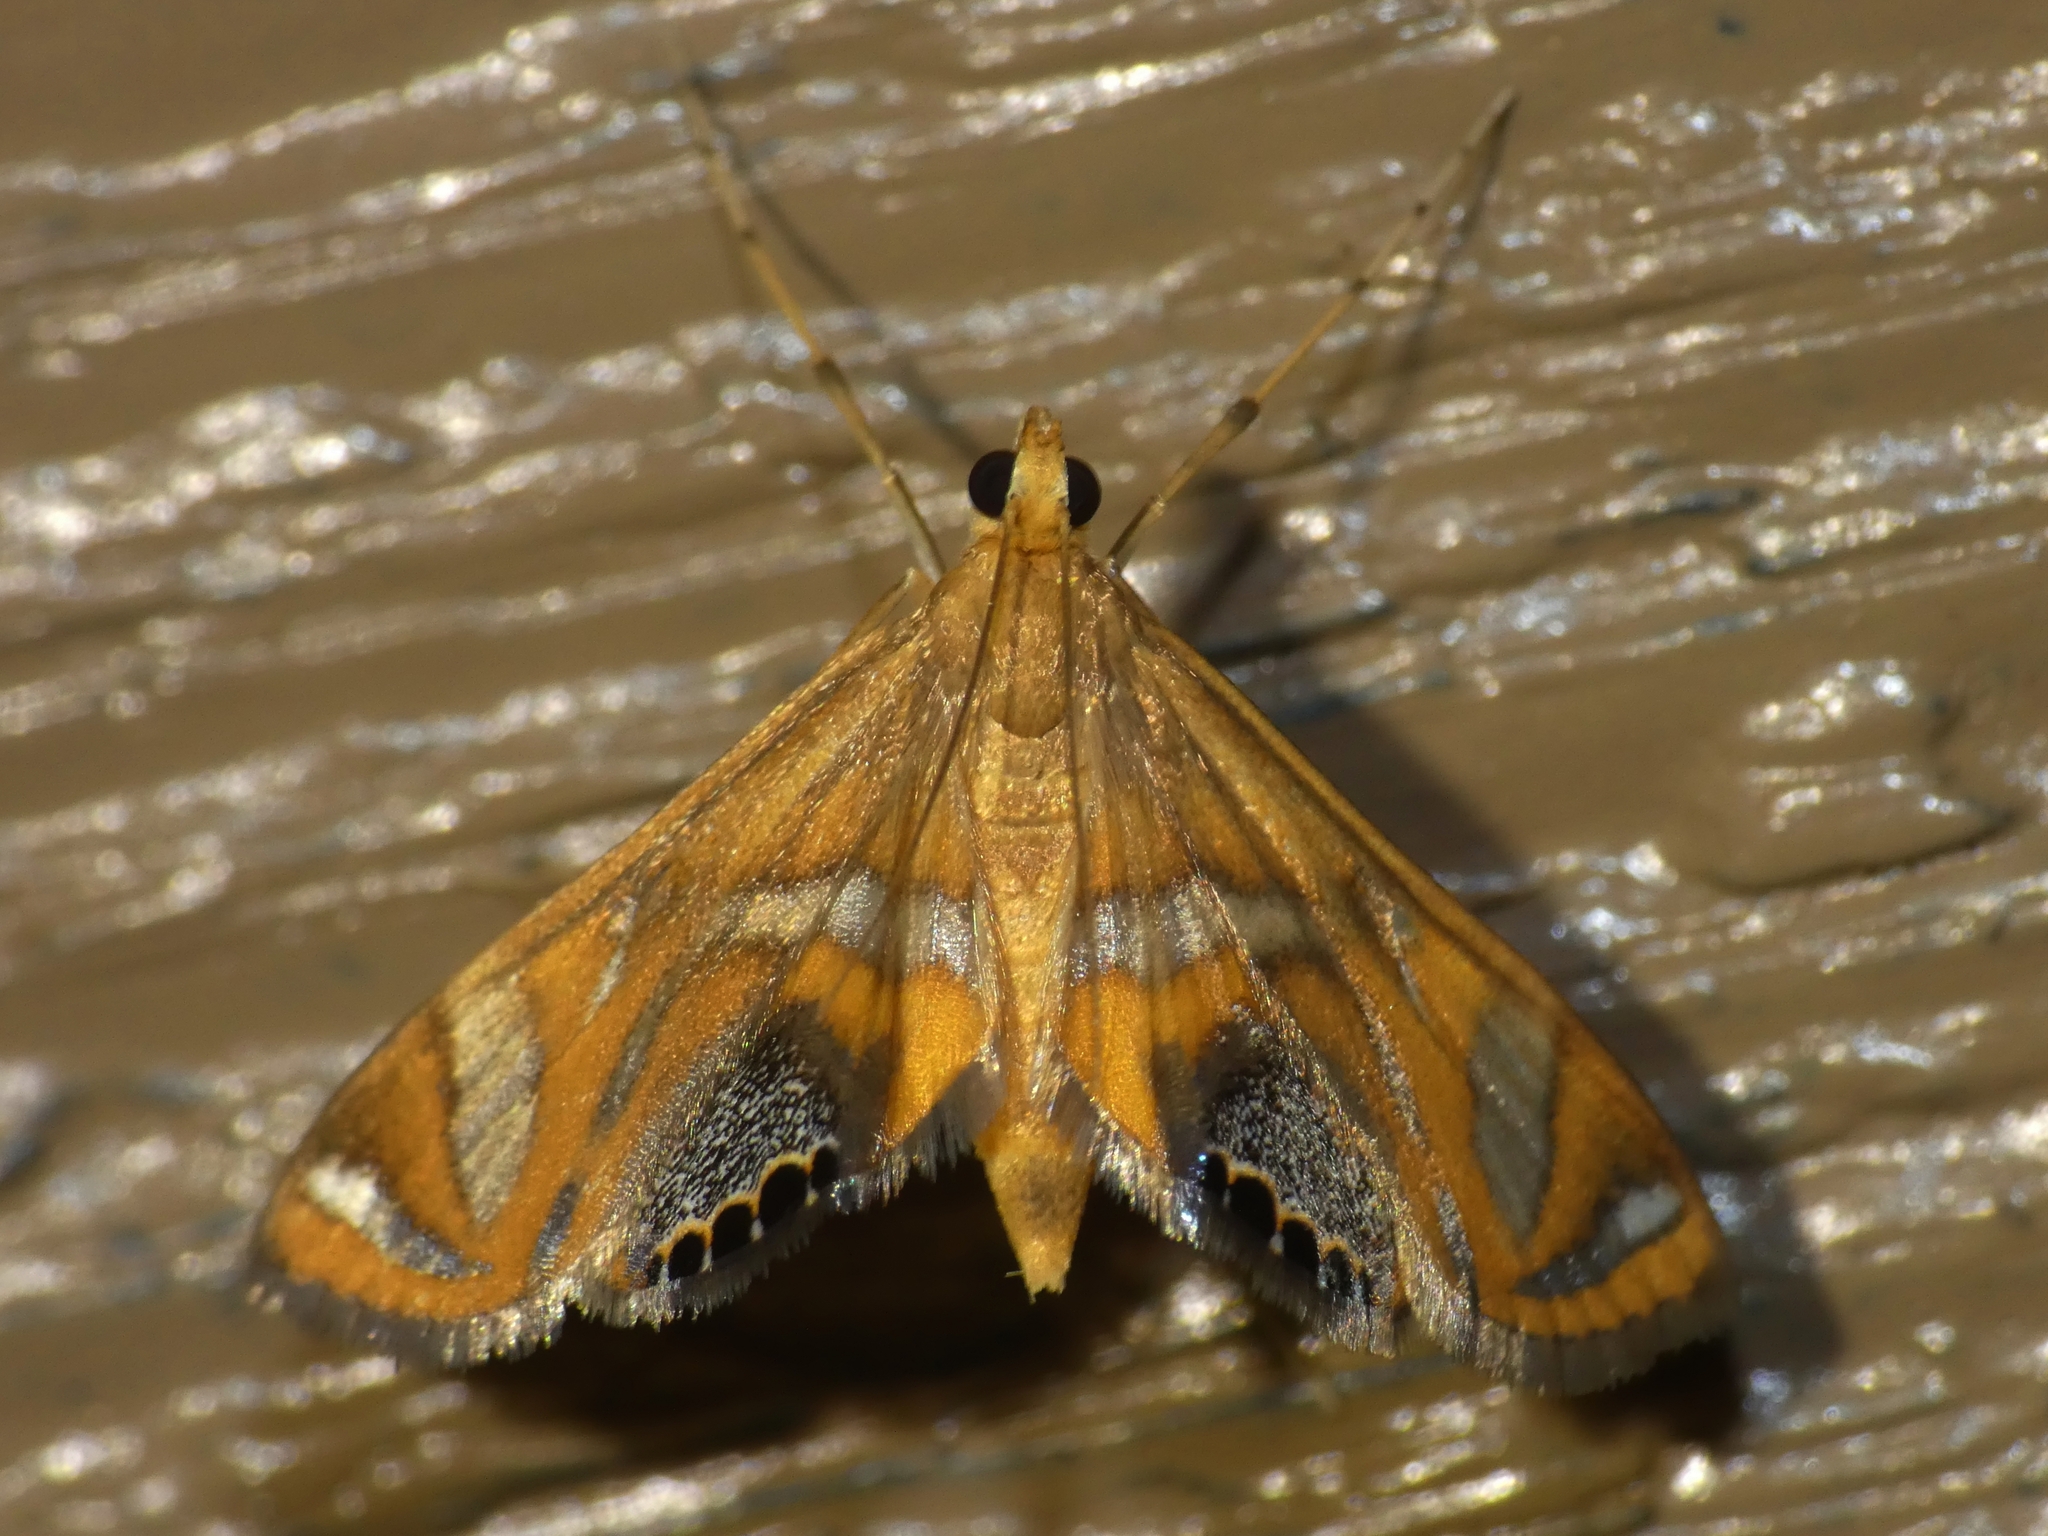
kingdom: Animalia
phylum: Arthropoda
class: Insecta
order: Lepidoptera
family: Crambidae
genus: Margarosticha
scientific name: Margarosticha
